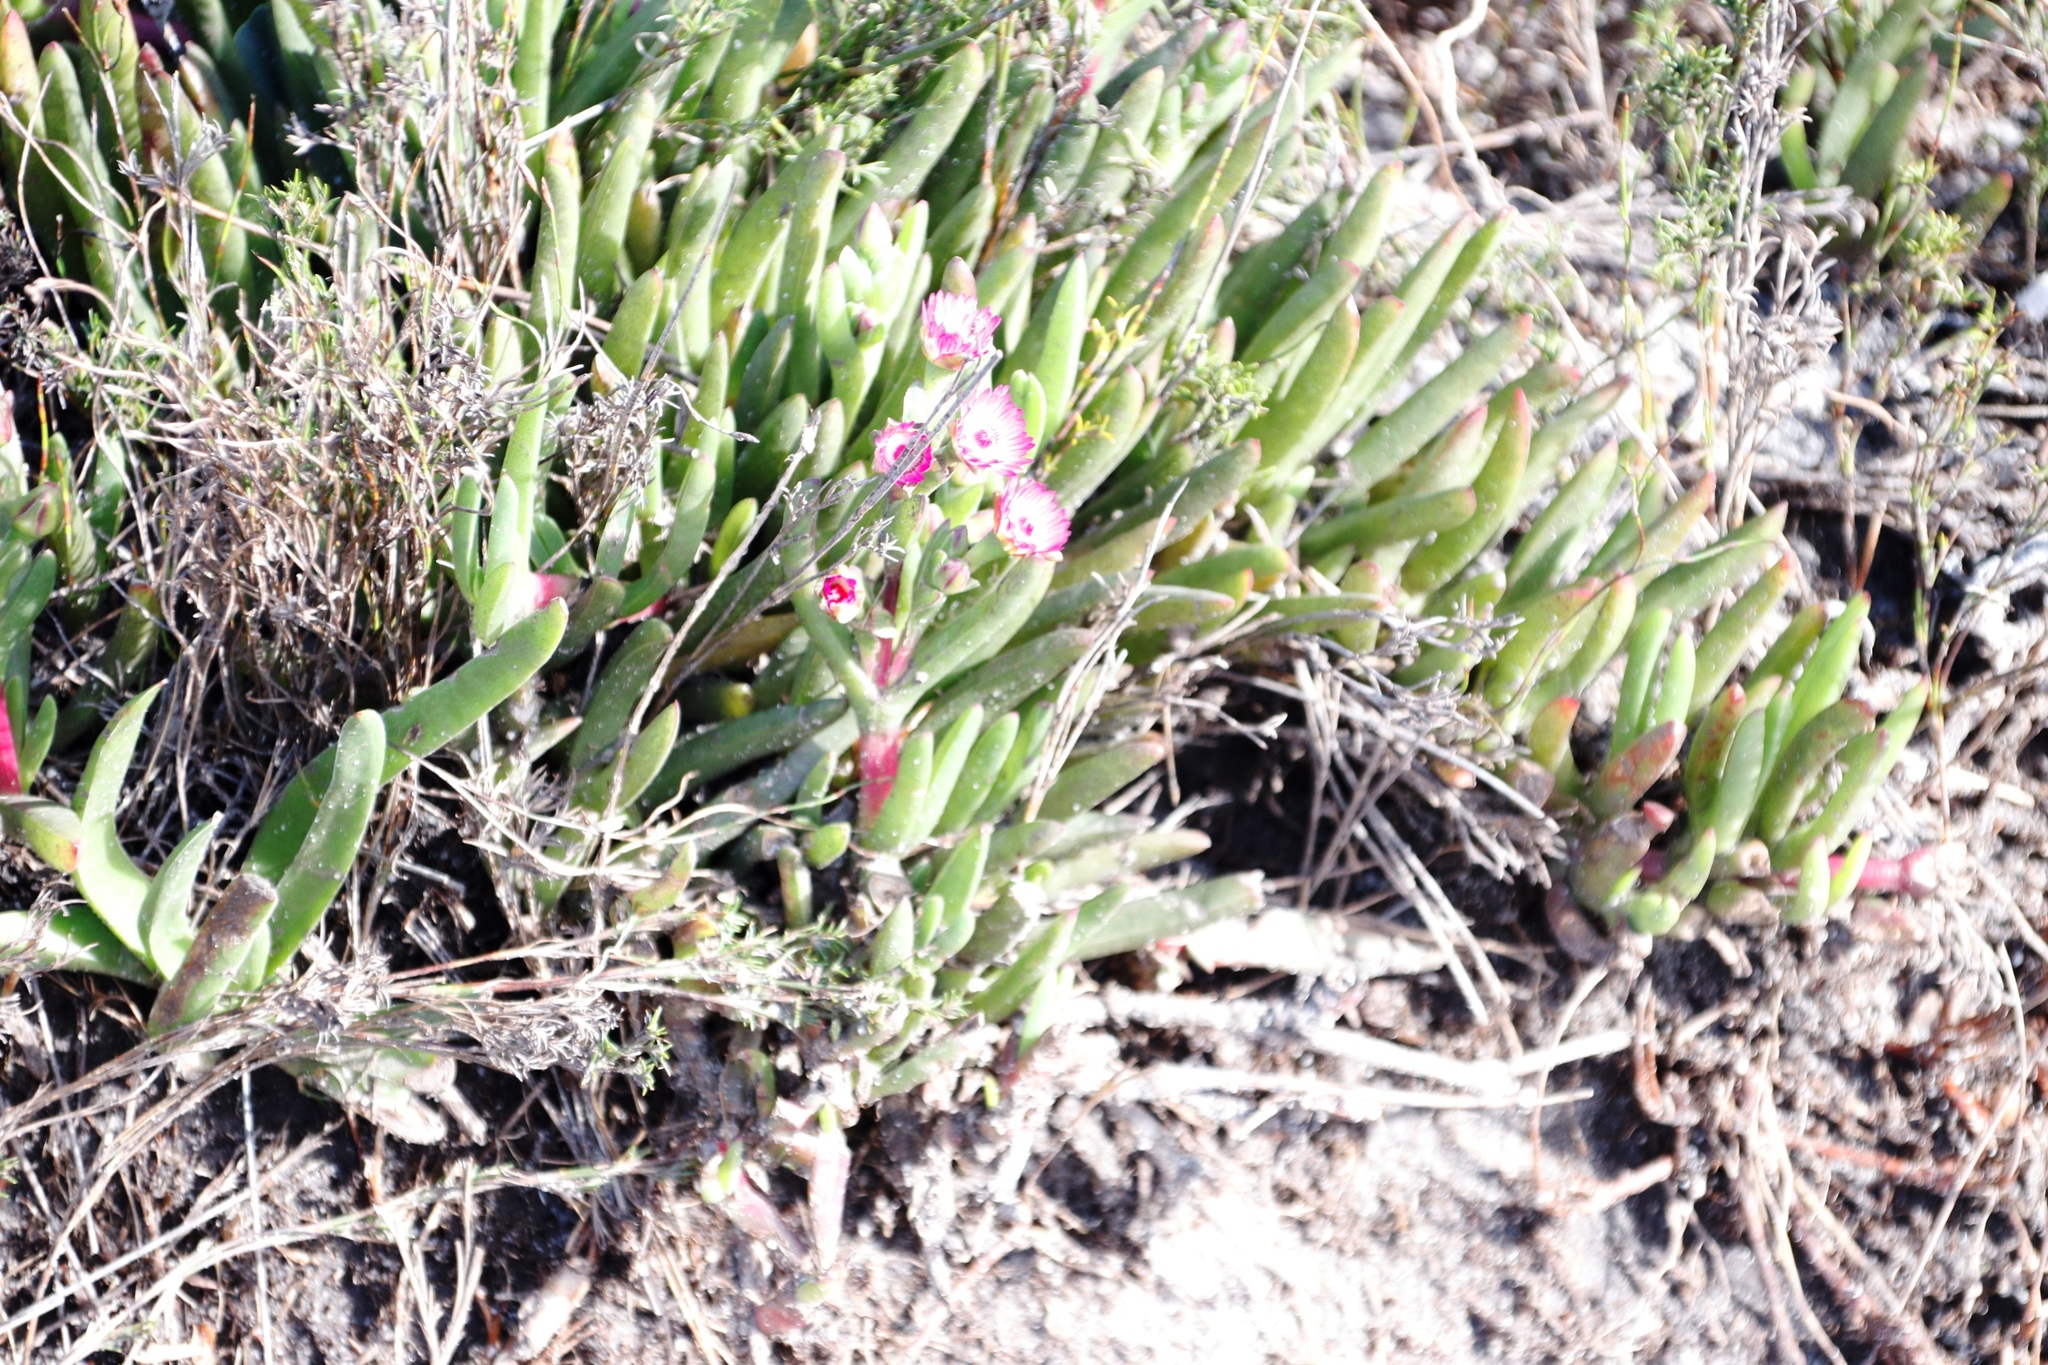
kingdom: Plantae
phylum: Tracheophyta
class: Magnoliopsida
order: Caryophyllales
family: Aizoaceae
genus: Ruschia
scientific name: Ruschia sarmentosa
